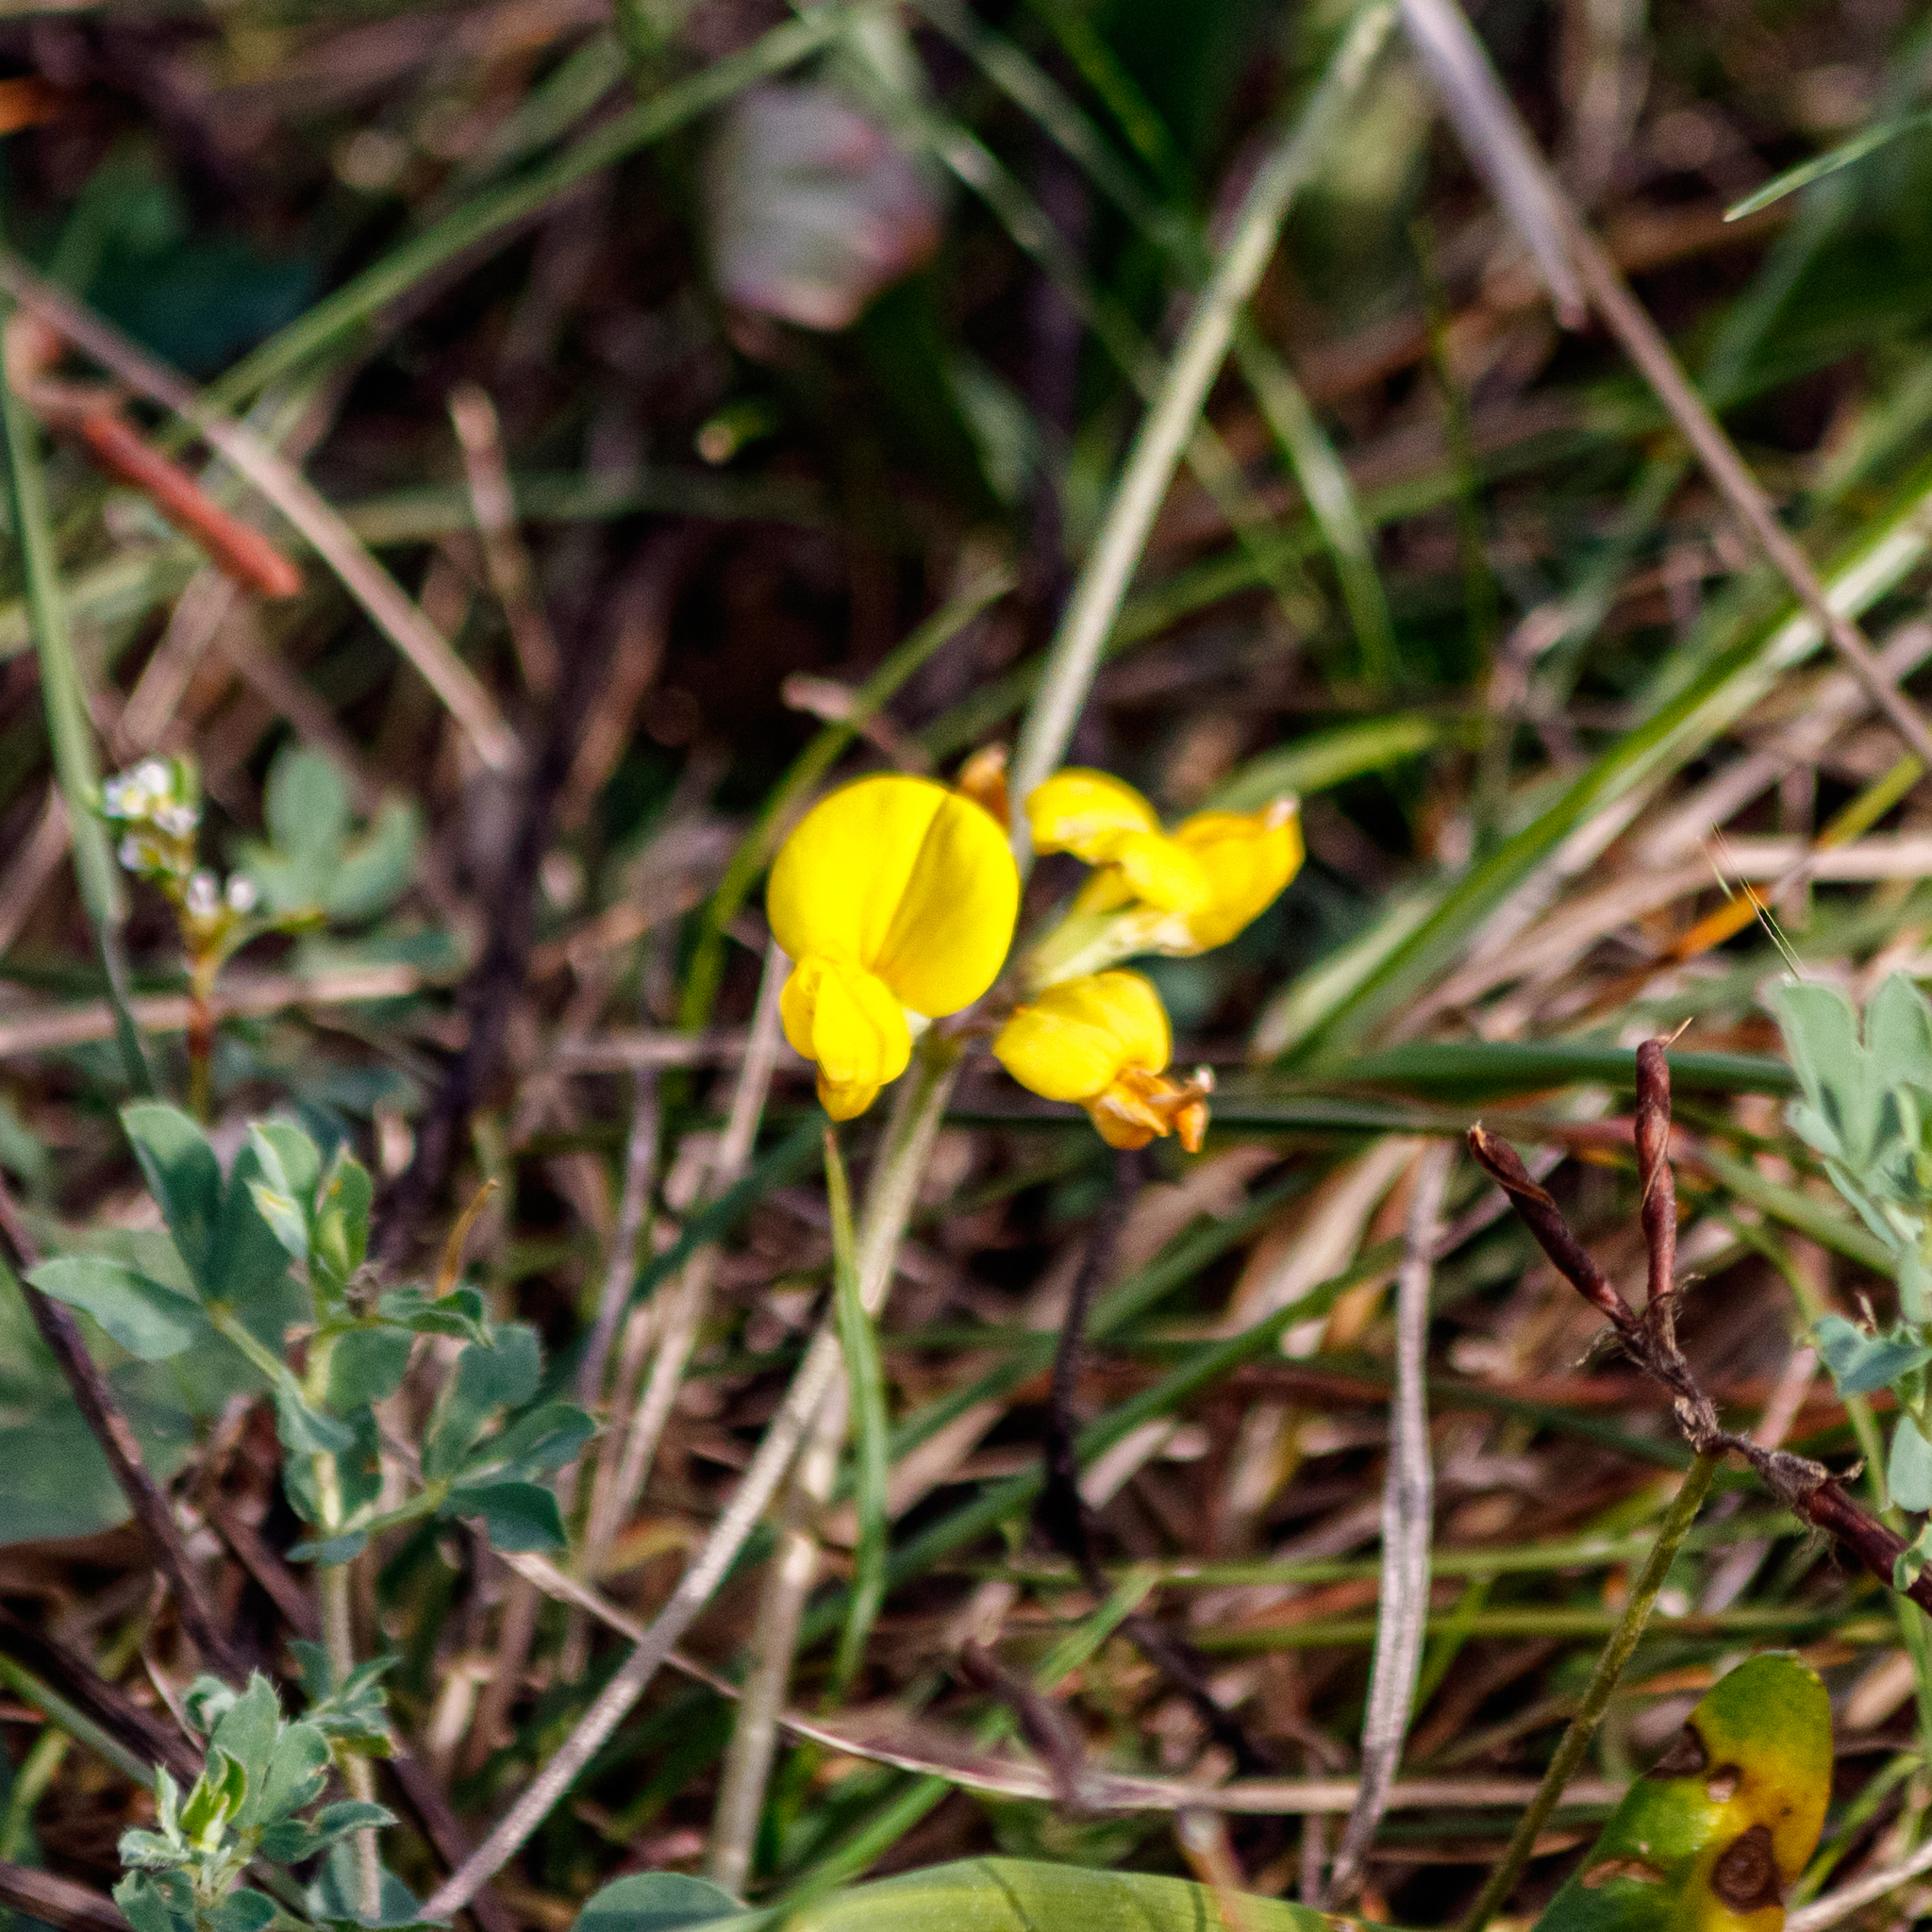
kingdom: Plantae
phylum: Tracheophyta
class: Magnoliopsida
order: Fabales
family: Fabaceae
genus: Lotus
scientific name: Lotus corniculatus
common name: Common bird's-foot-trefoil
